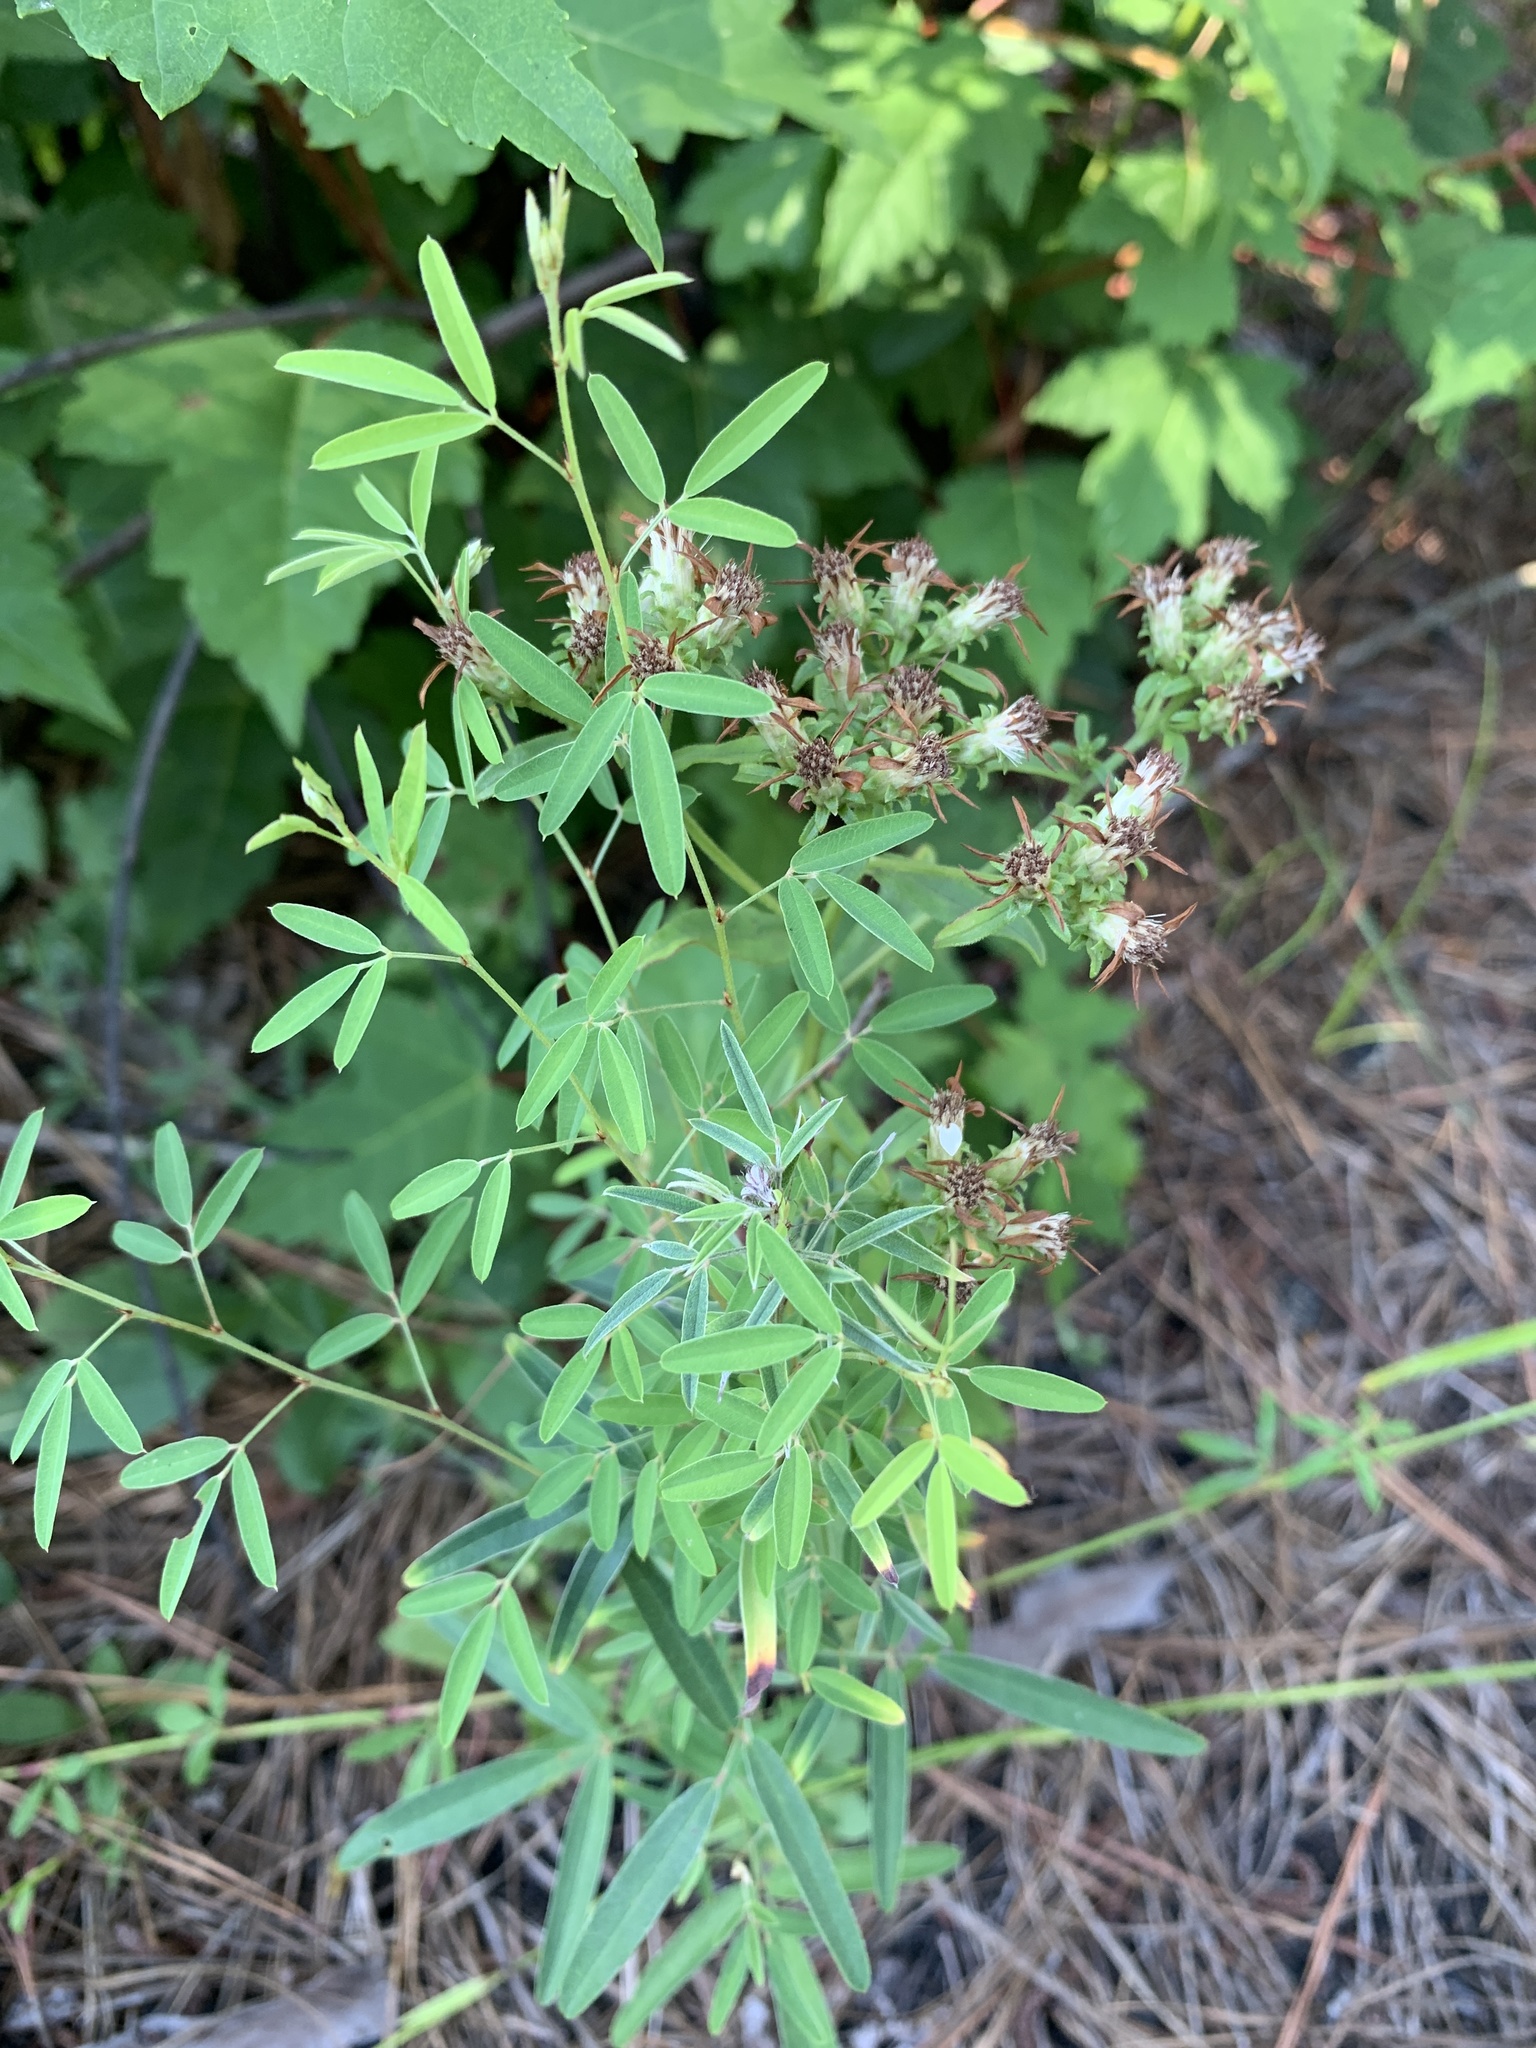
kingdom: Plantae
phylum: Tracheophyta
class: Magnoliopsida
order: Fabales
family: Fabaceae
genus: Lespedeza
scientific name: Lespedeza virginica
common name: Slender bush-clover
